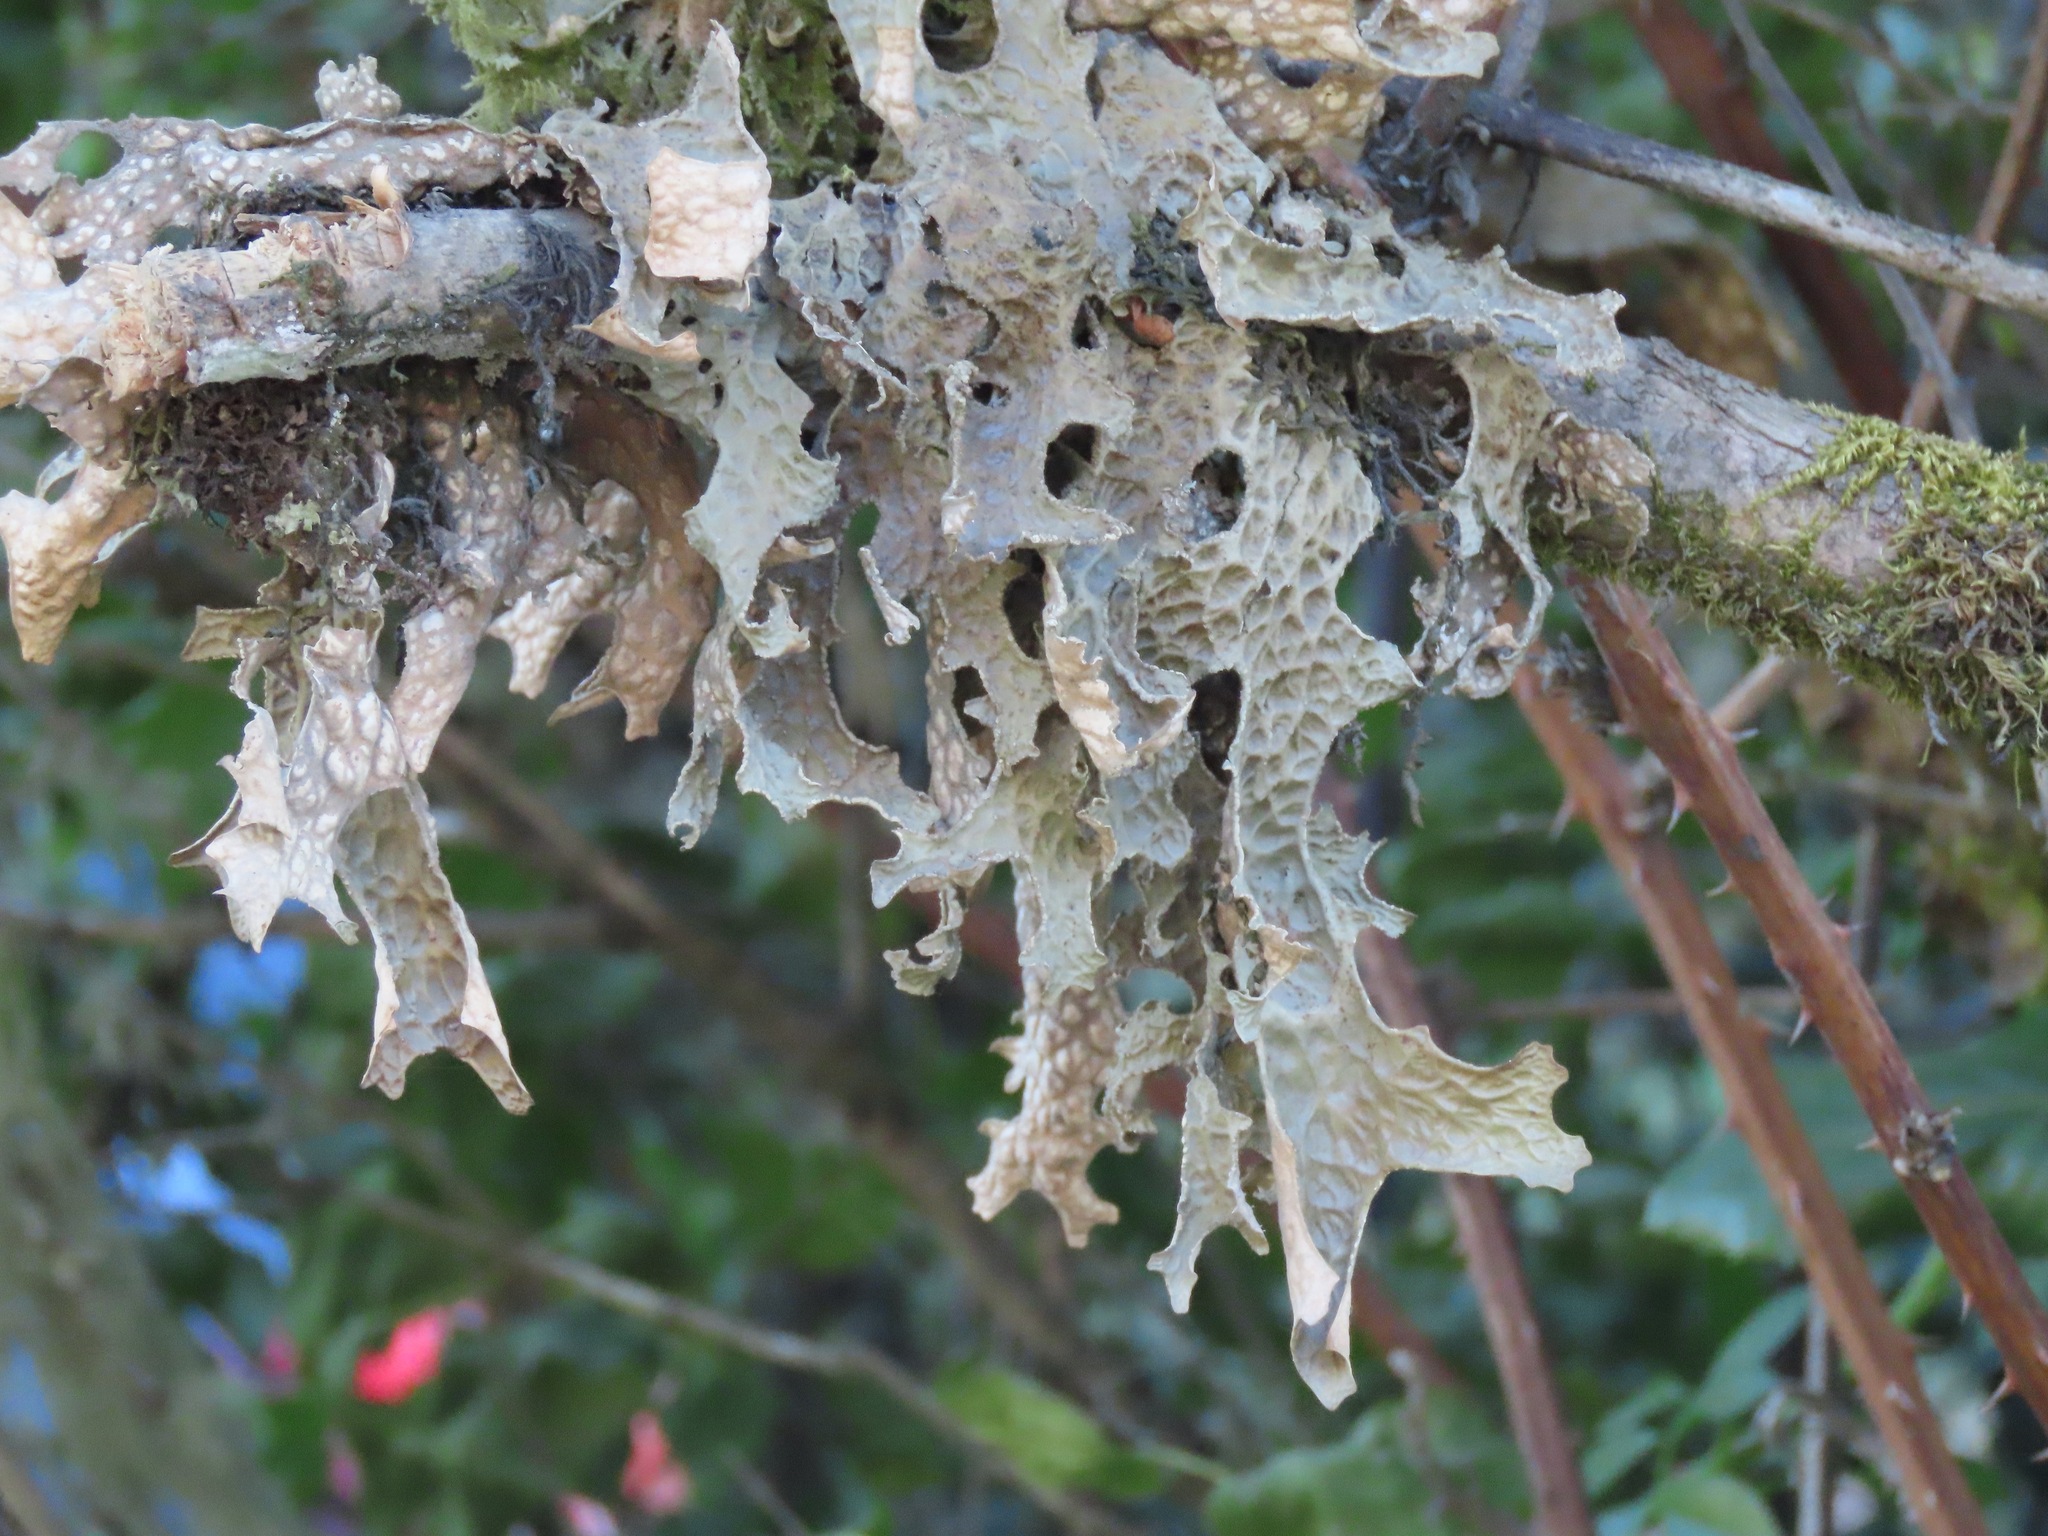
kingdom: Fungi
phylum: Ascomycota
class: Lecanoromycetes
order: Peltigerales
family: Lobariaceae
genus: Lobaria
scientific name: Lobaria pulmonaria
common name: Lungwort
